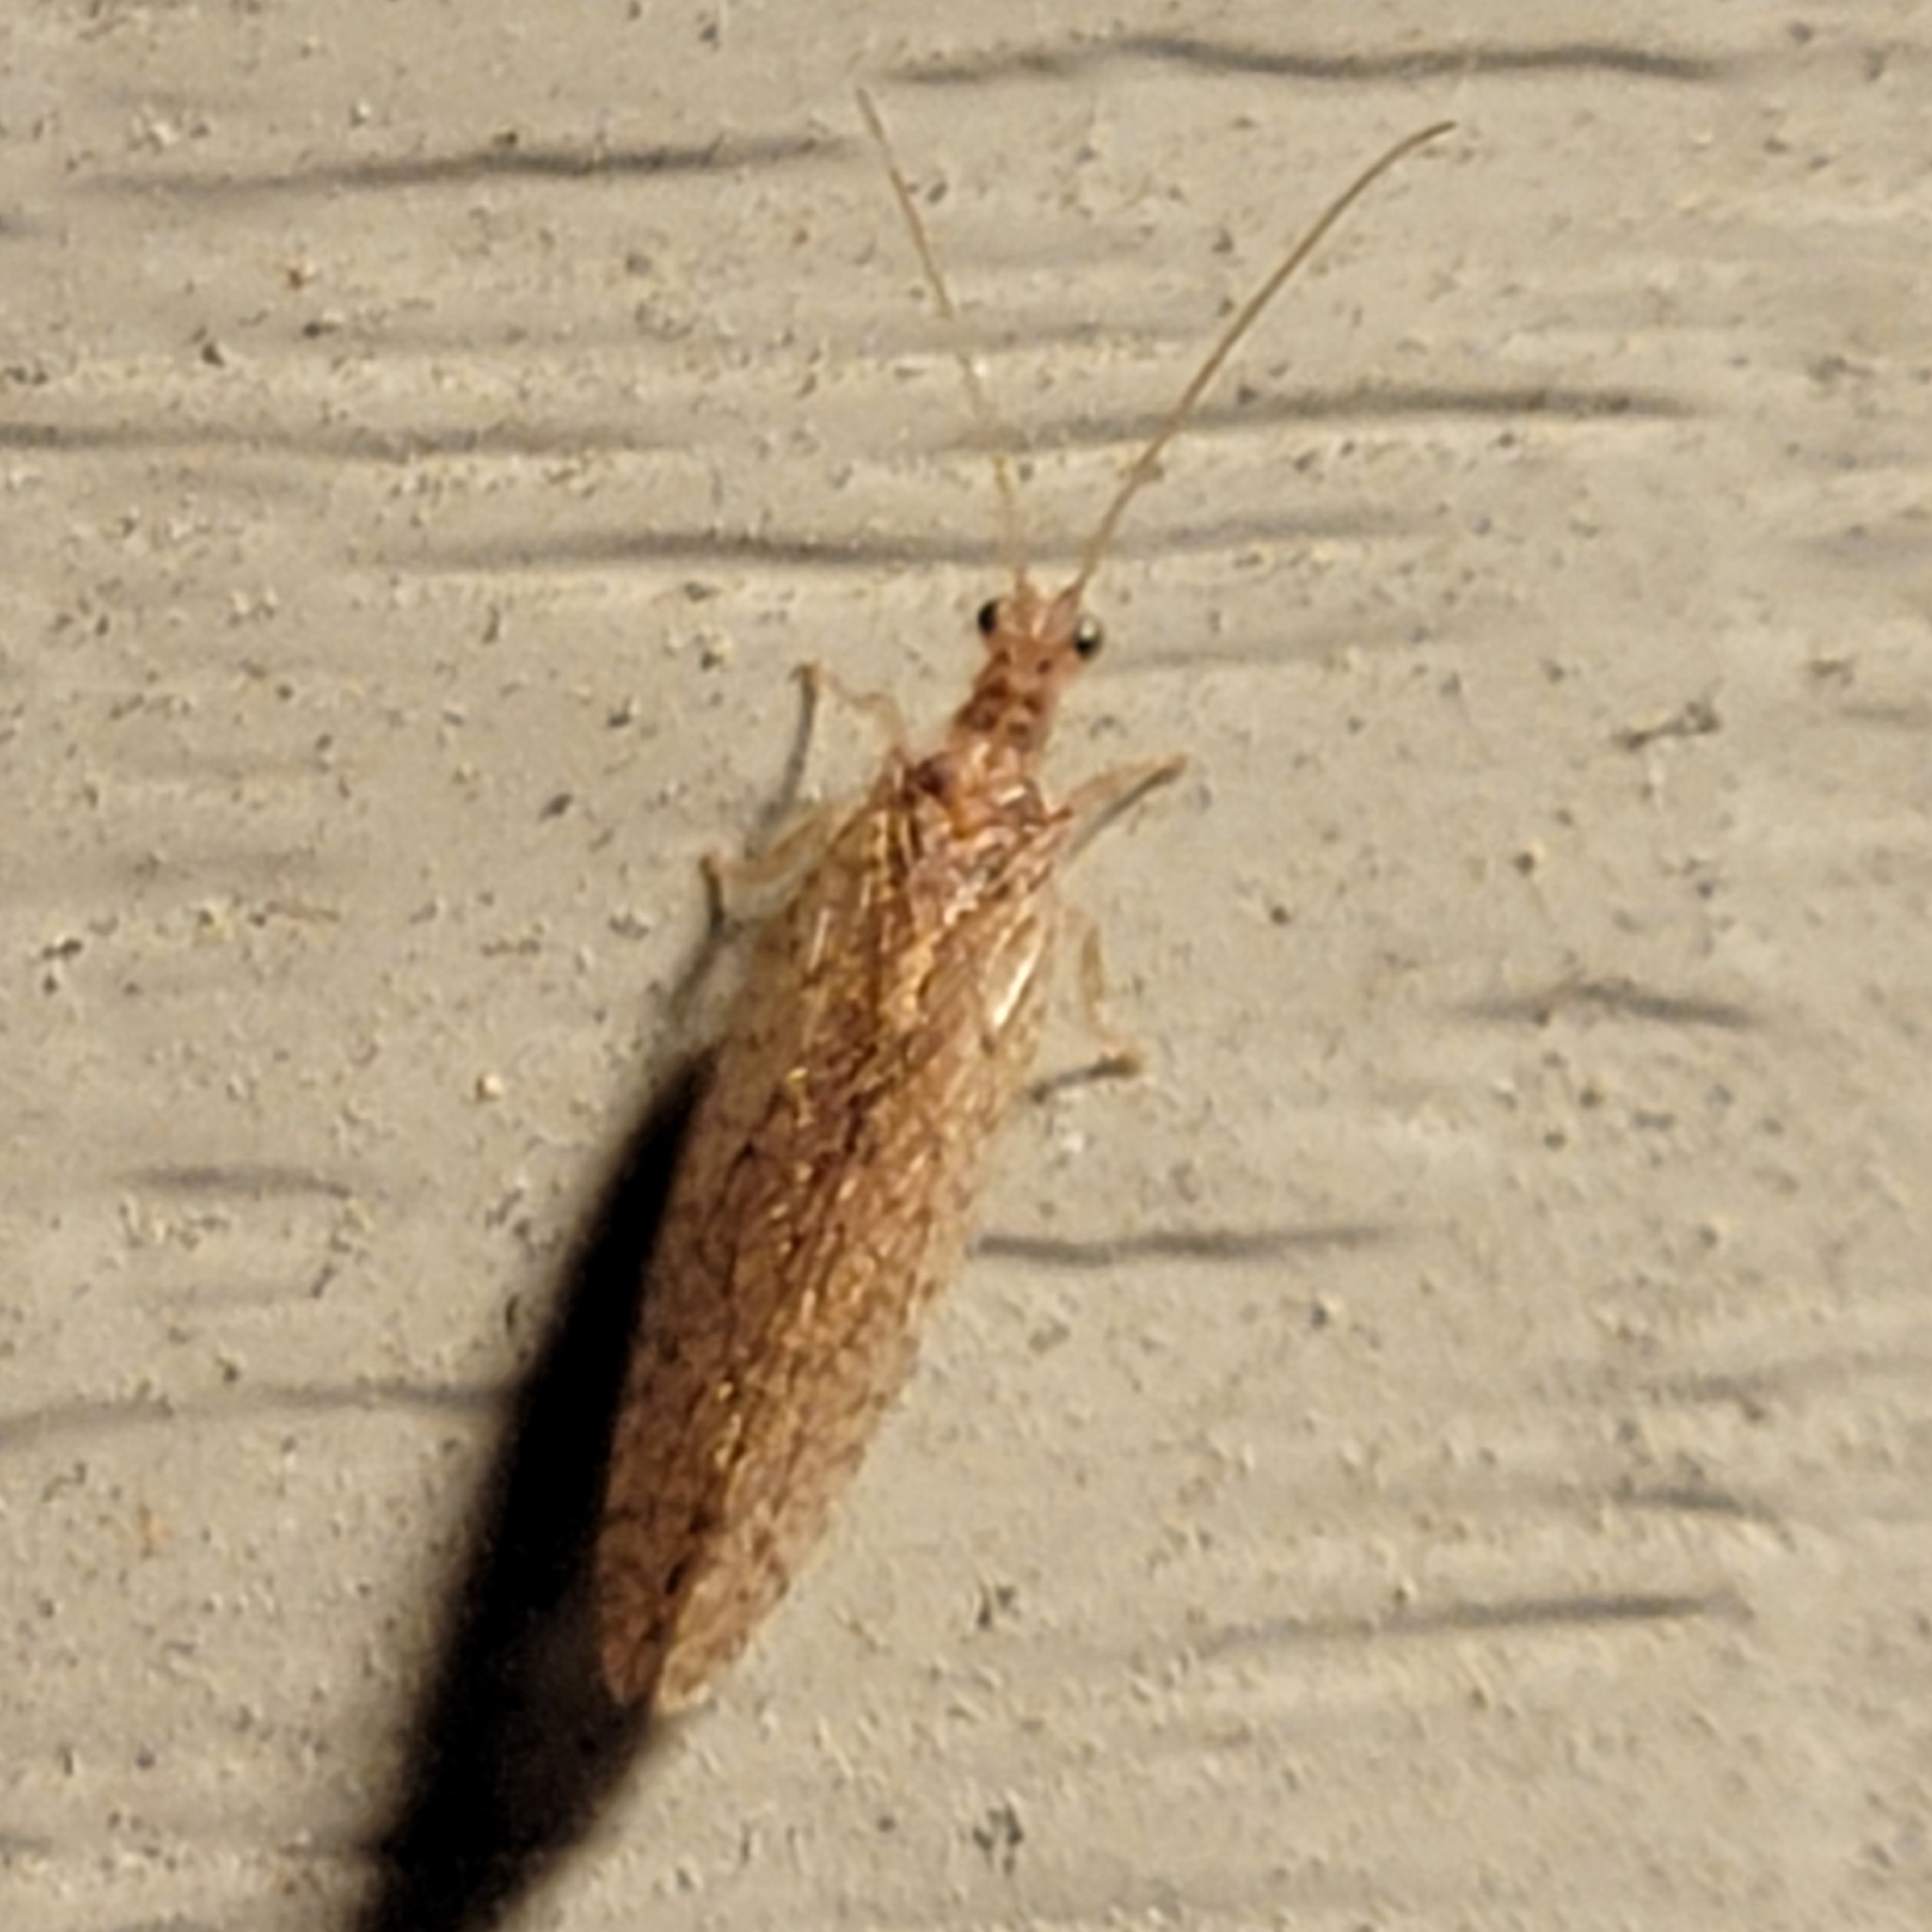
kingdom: Animalia
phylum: Arthropoda
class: Insecta
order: Neuroptera
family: Hemerobiidae
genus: Micromus
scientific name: Micromus posticus
